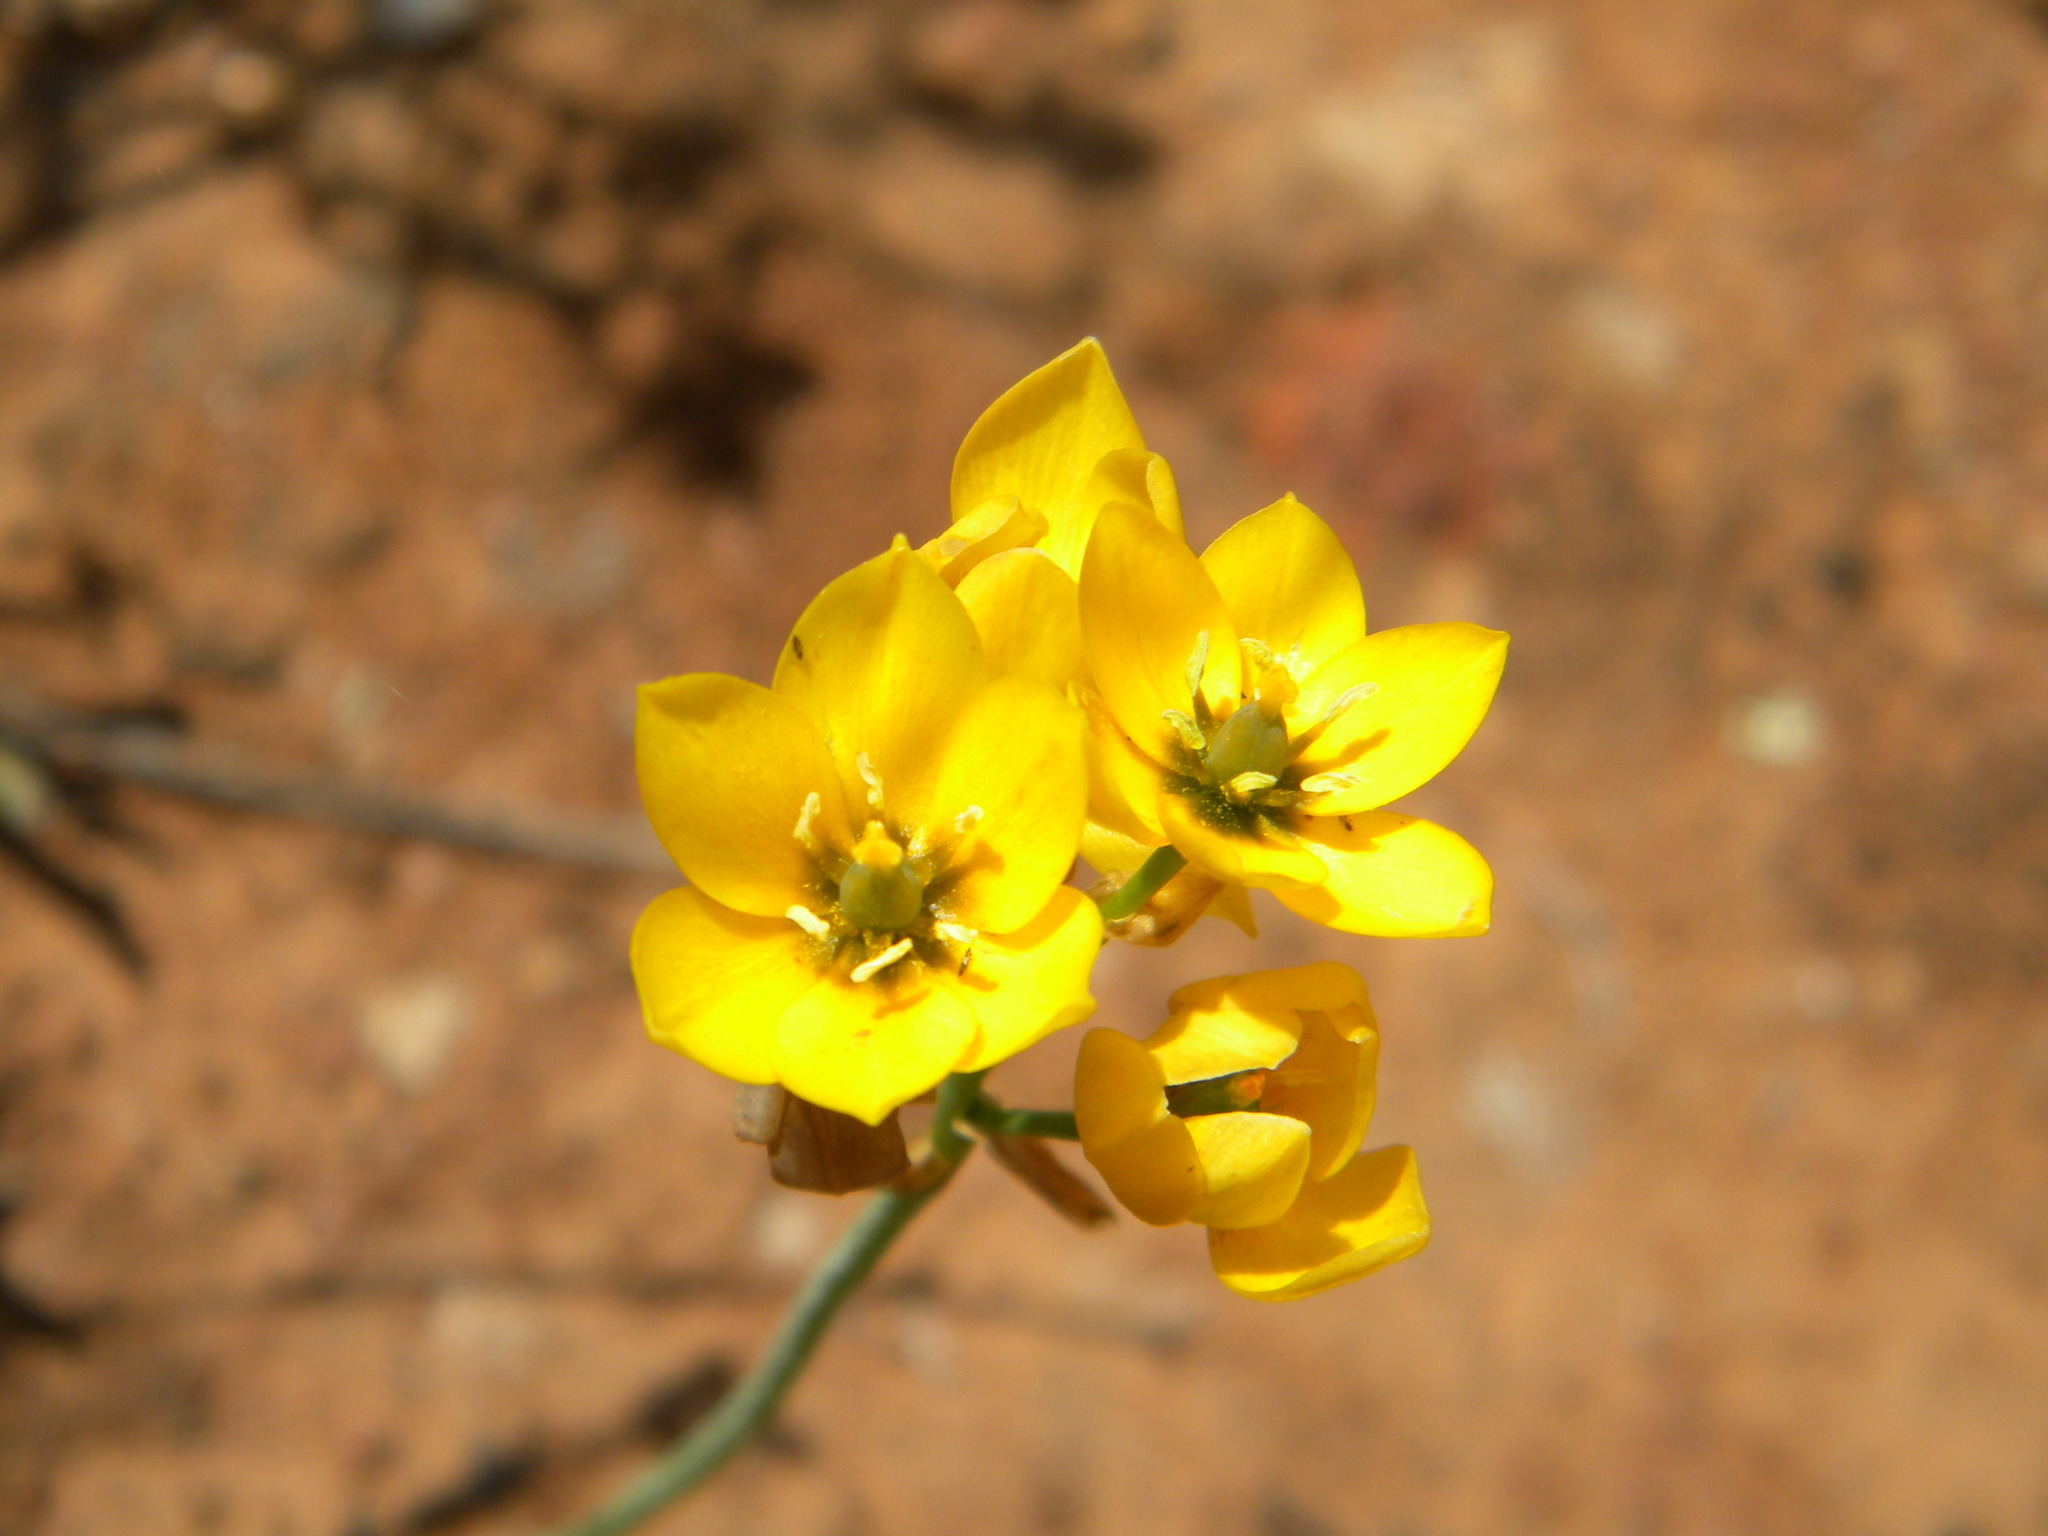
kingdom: Plantae
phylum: Tracheophyta
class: Liliopsida
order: Asparagales
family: Asparagaceae
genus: Ornithogalum
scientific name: Ornithogalum dubium
